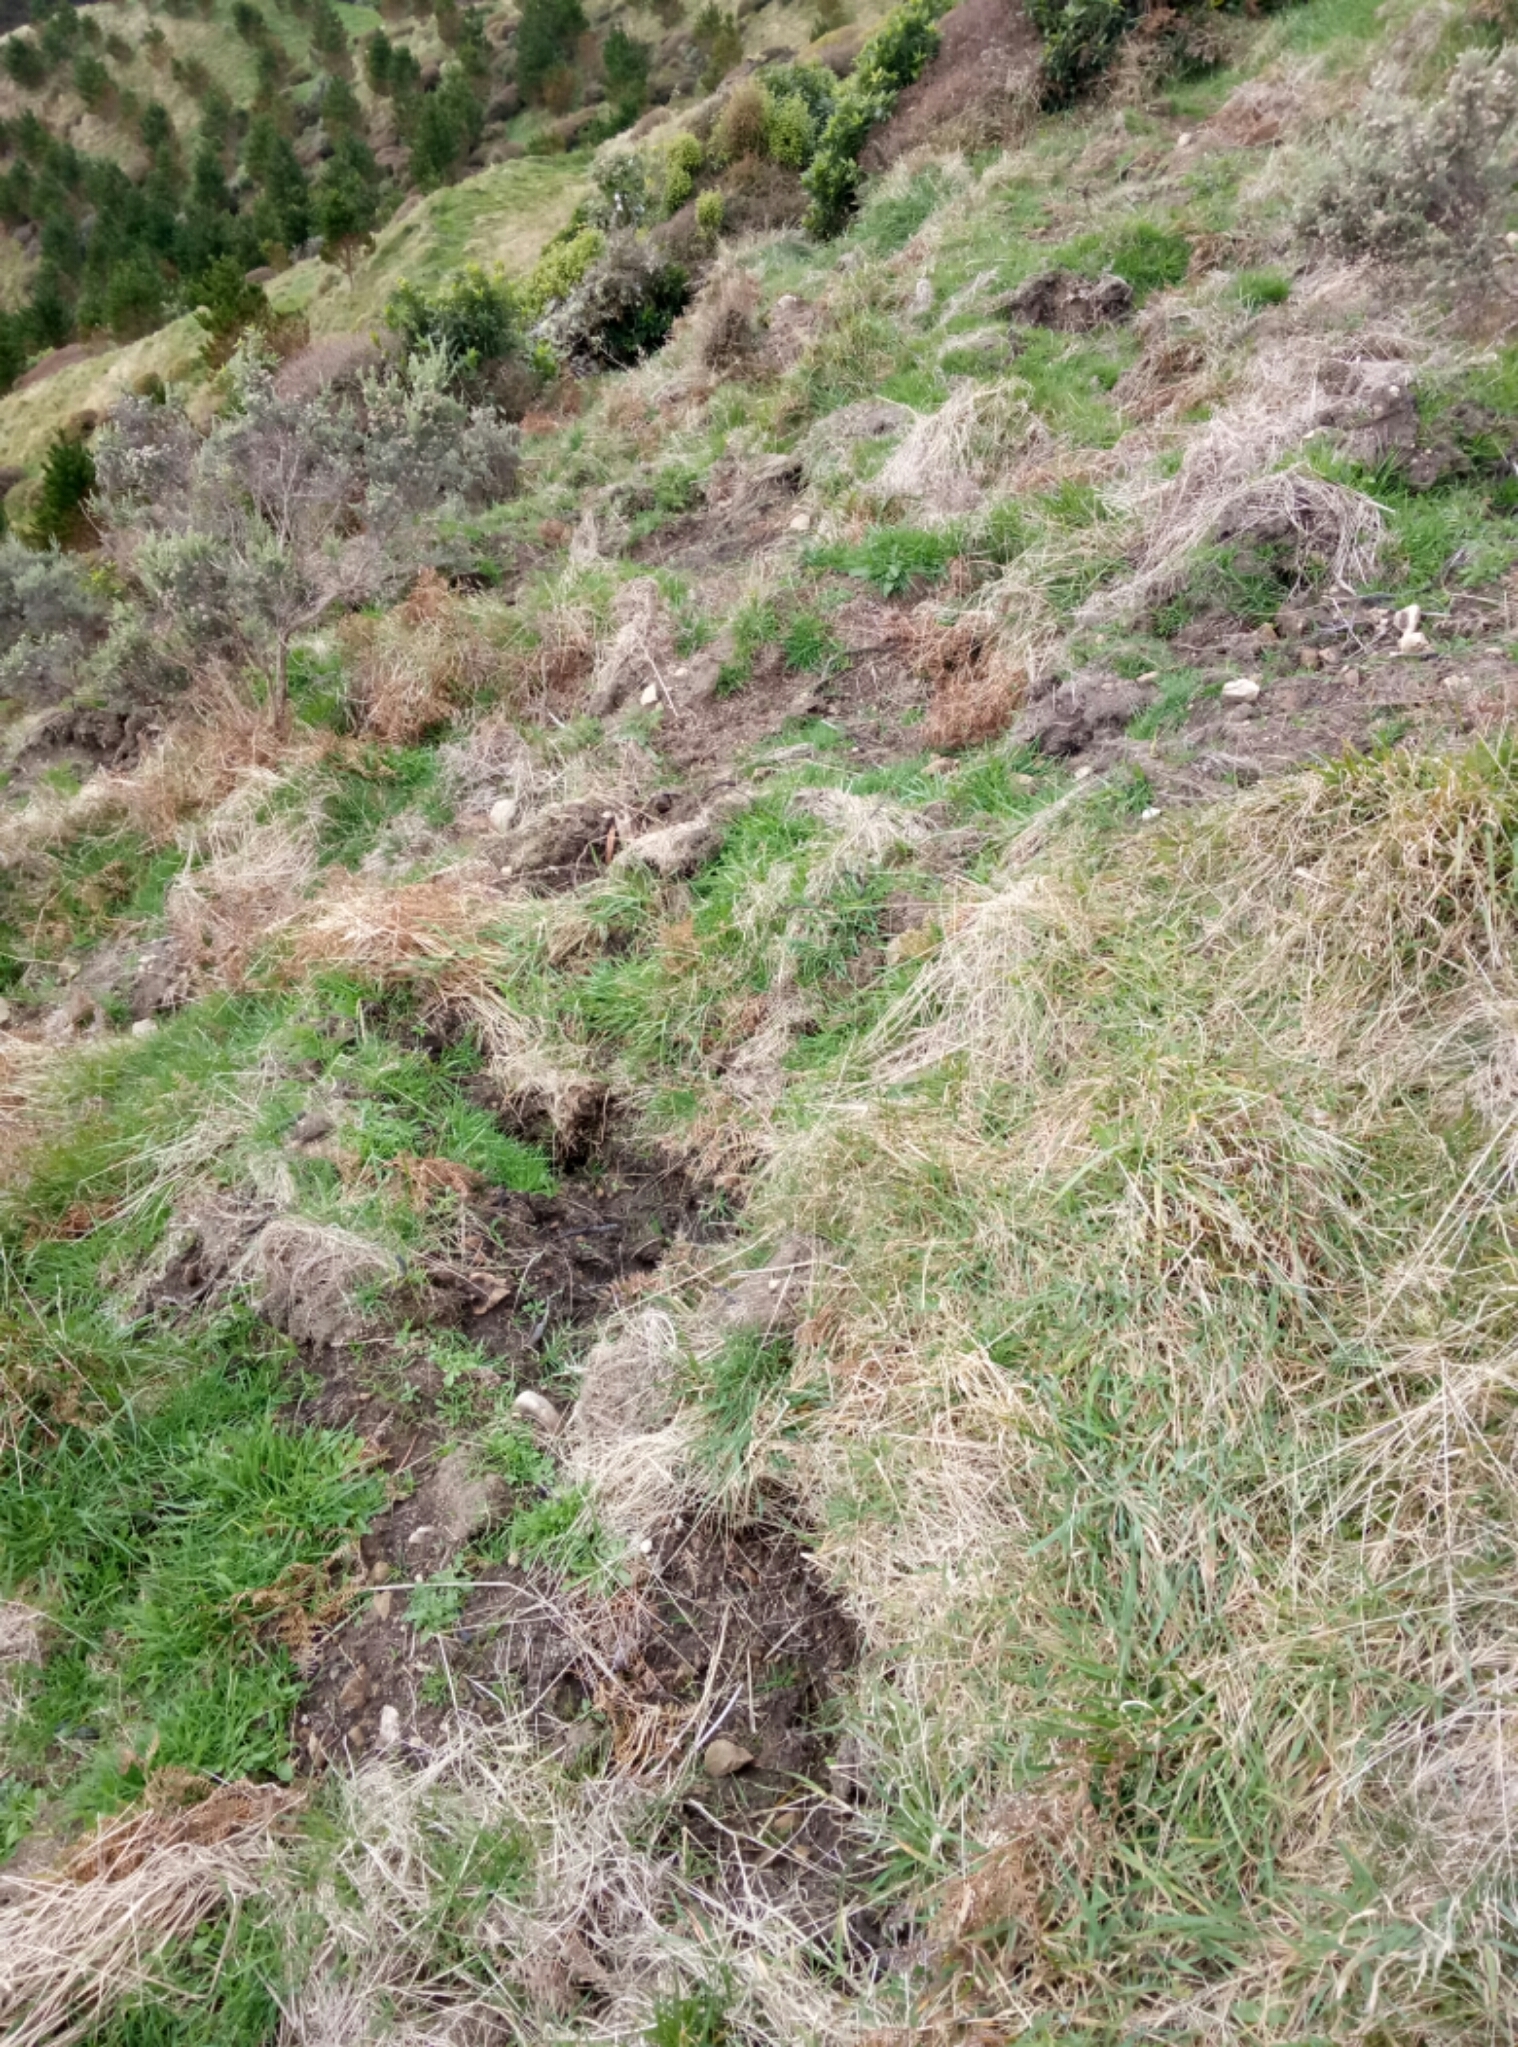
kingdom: Animalia
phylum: Chordata
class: Mammalia
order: Artiodactyla
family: Suidae
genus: Sus
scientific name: Sus scrofa
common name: Wild boar
